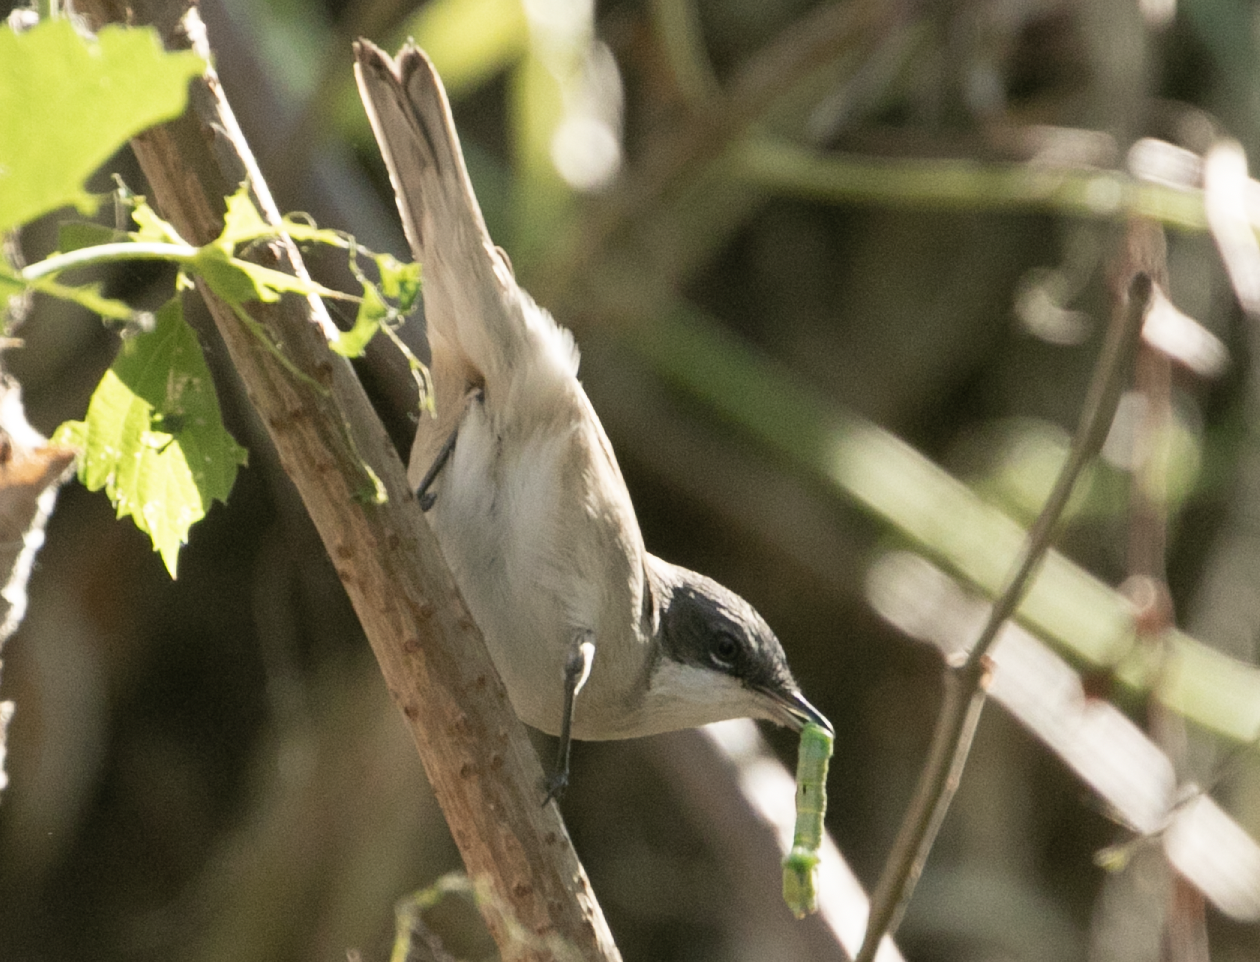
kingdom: Animalia
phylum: Chordata
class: Aves
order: Passeriformes
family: Sylviidae
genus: Sylvia
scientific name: Sylvia curruca
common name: Lesser whitethroat
